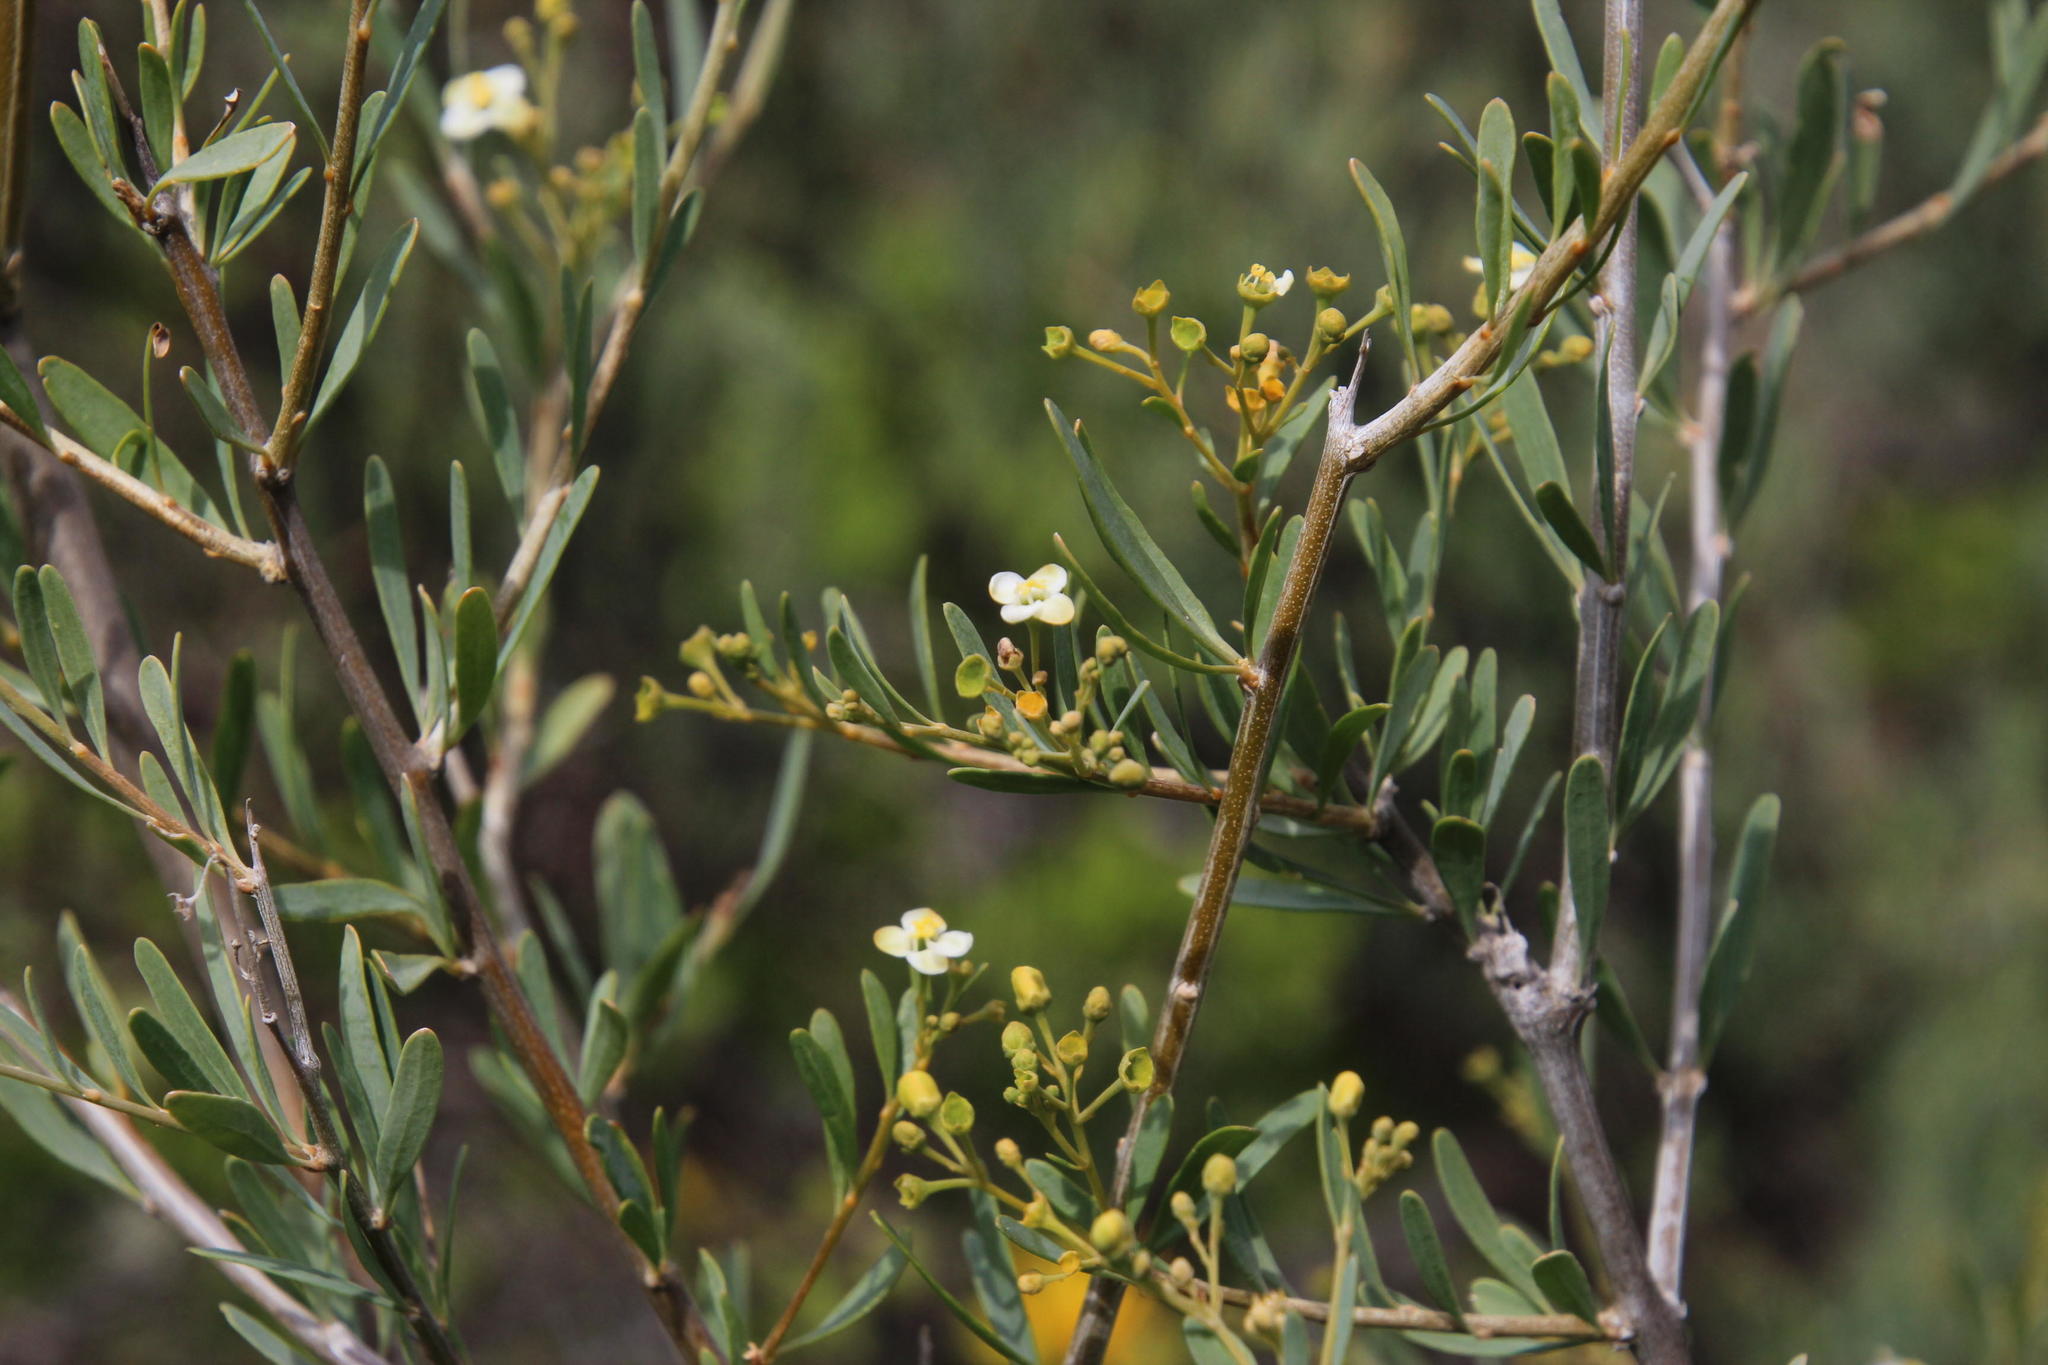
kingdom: Plantae
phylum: Tracheophyta
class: Magnoliopsida
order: Solanales
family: Montiniaceae
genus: Montinia
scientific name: Montinia caryophyllacea
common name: Wild clove-bush
